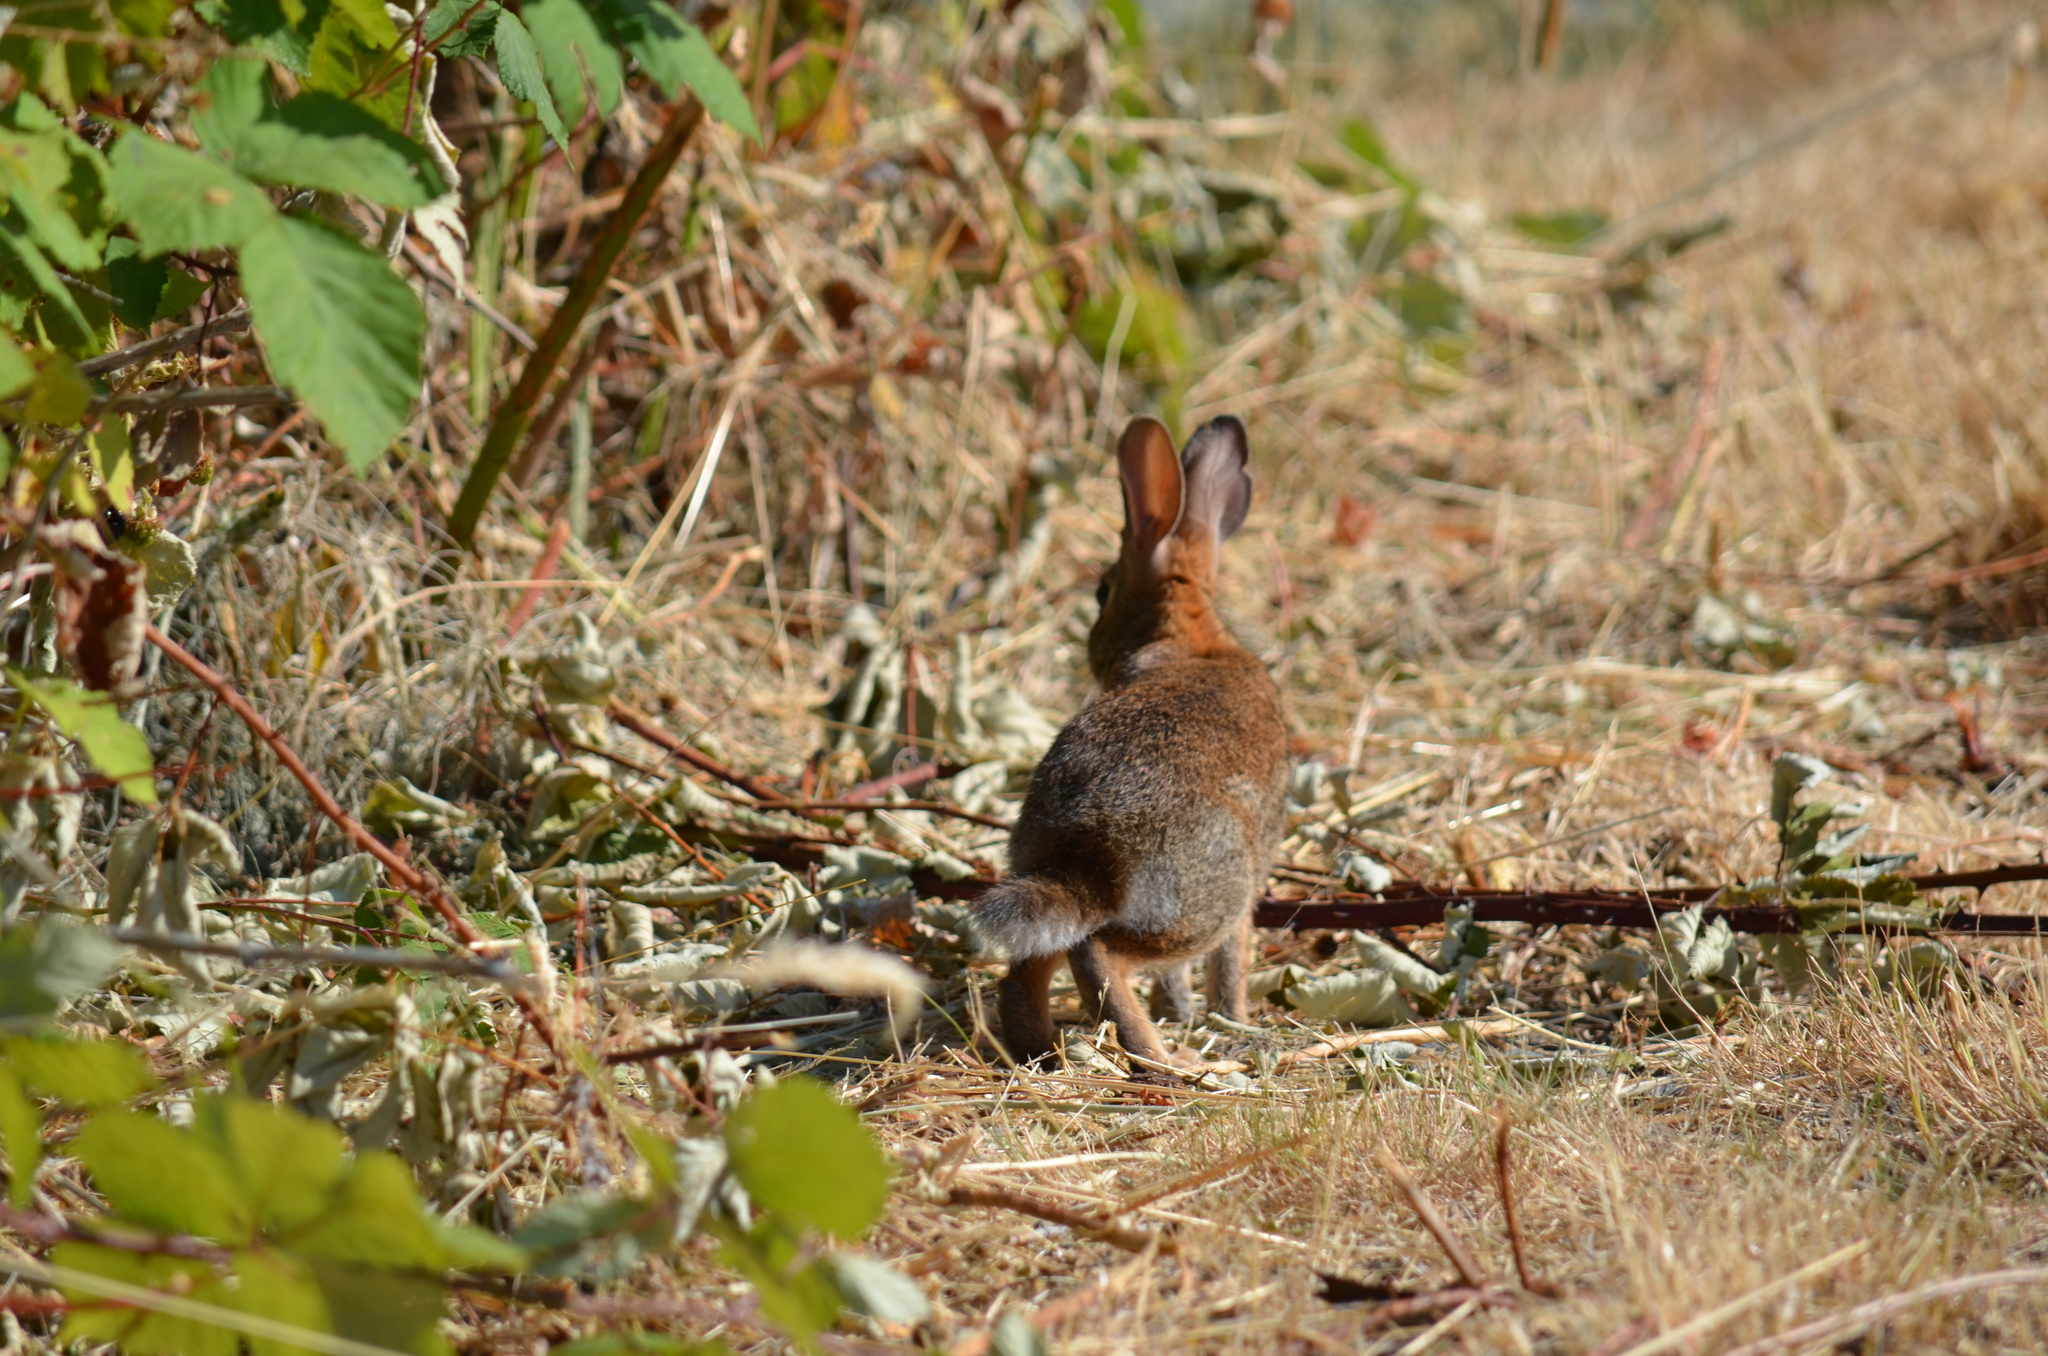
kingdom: Animalia
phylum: Chordata
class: Mammalia
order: Lagomorpha
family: Leporidae
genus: Sylvilagus
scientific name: Sylvilagus floridanus
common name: Eastern cottontail
